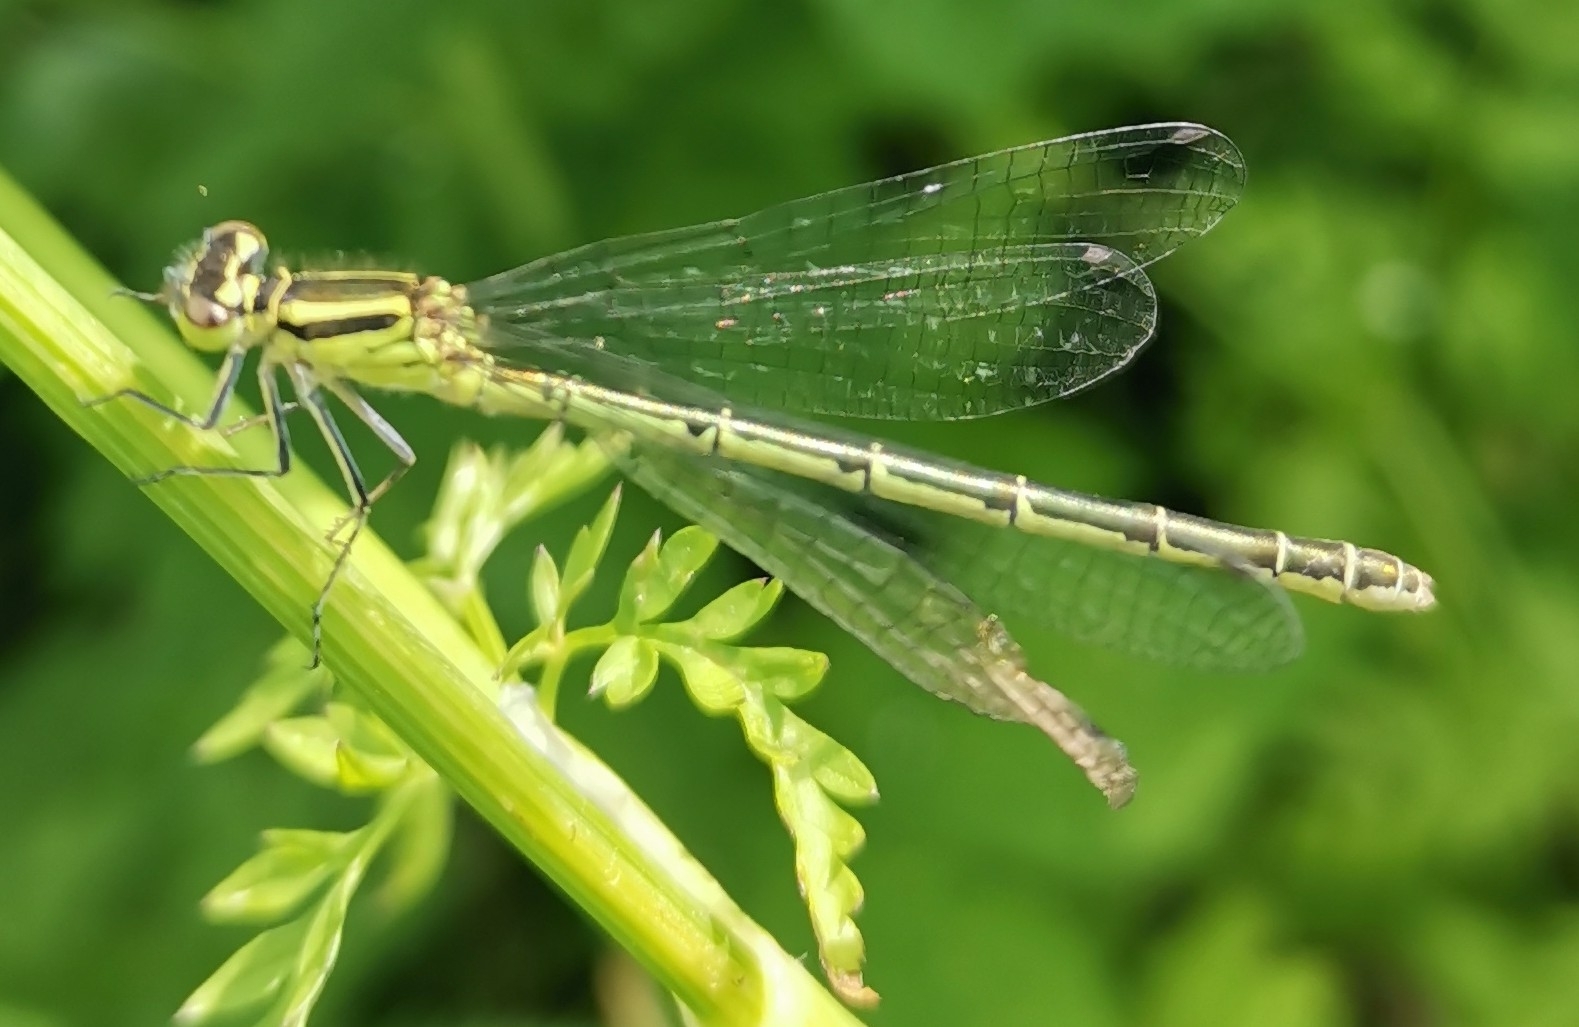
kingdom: Animalia
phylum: Arthropoda
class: Insecta
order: Odonata
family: Coenagrionidae
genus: Coenagrion
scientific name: Coenagrion hastulatum
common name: Spearhead bluet
